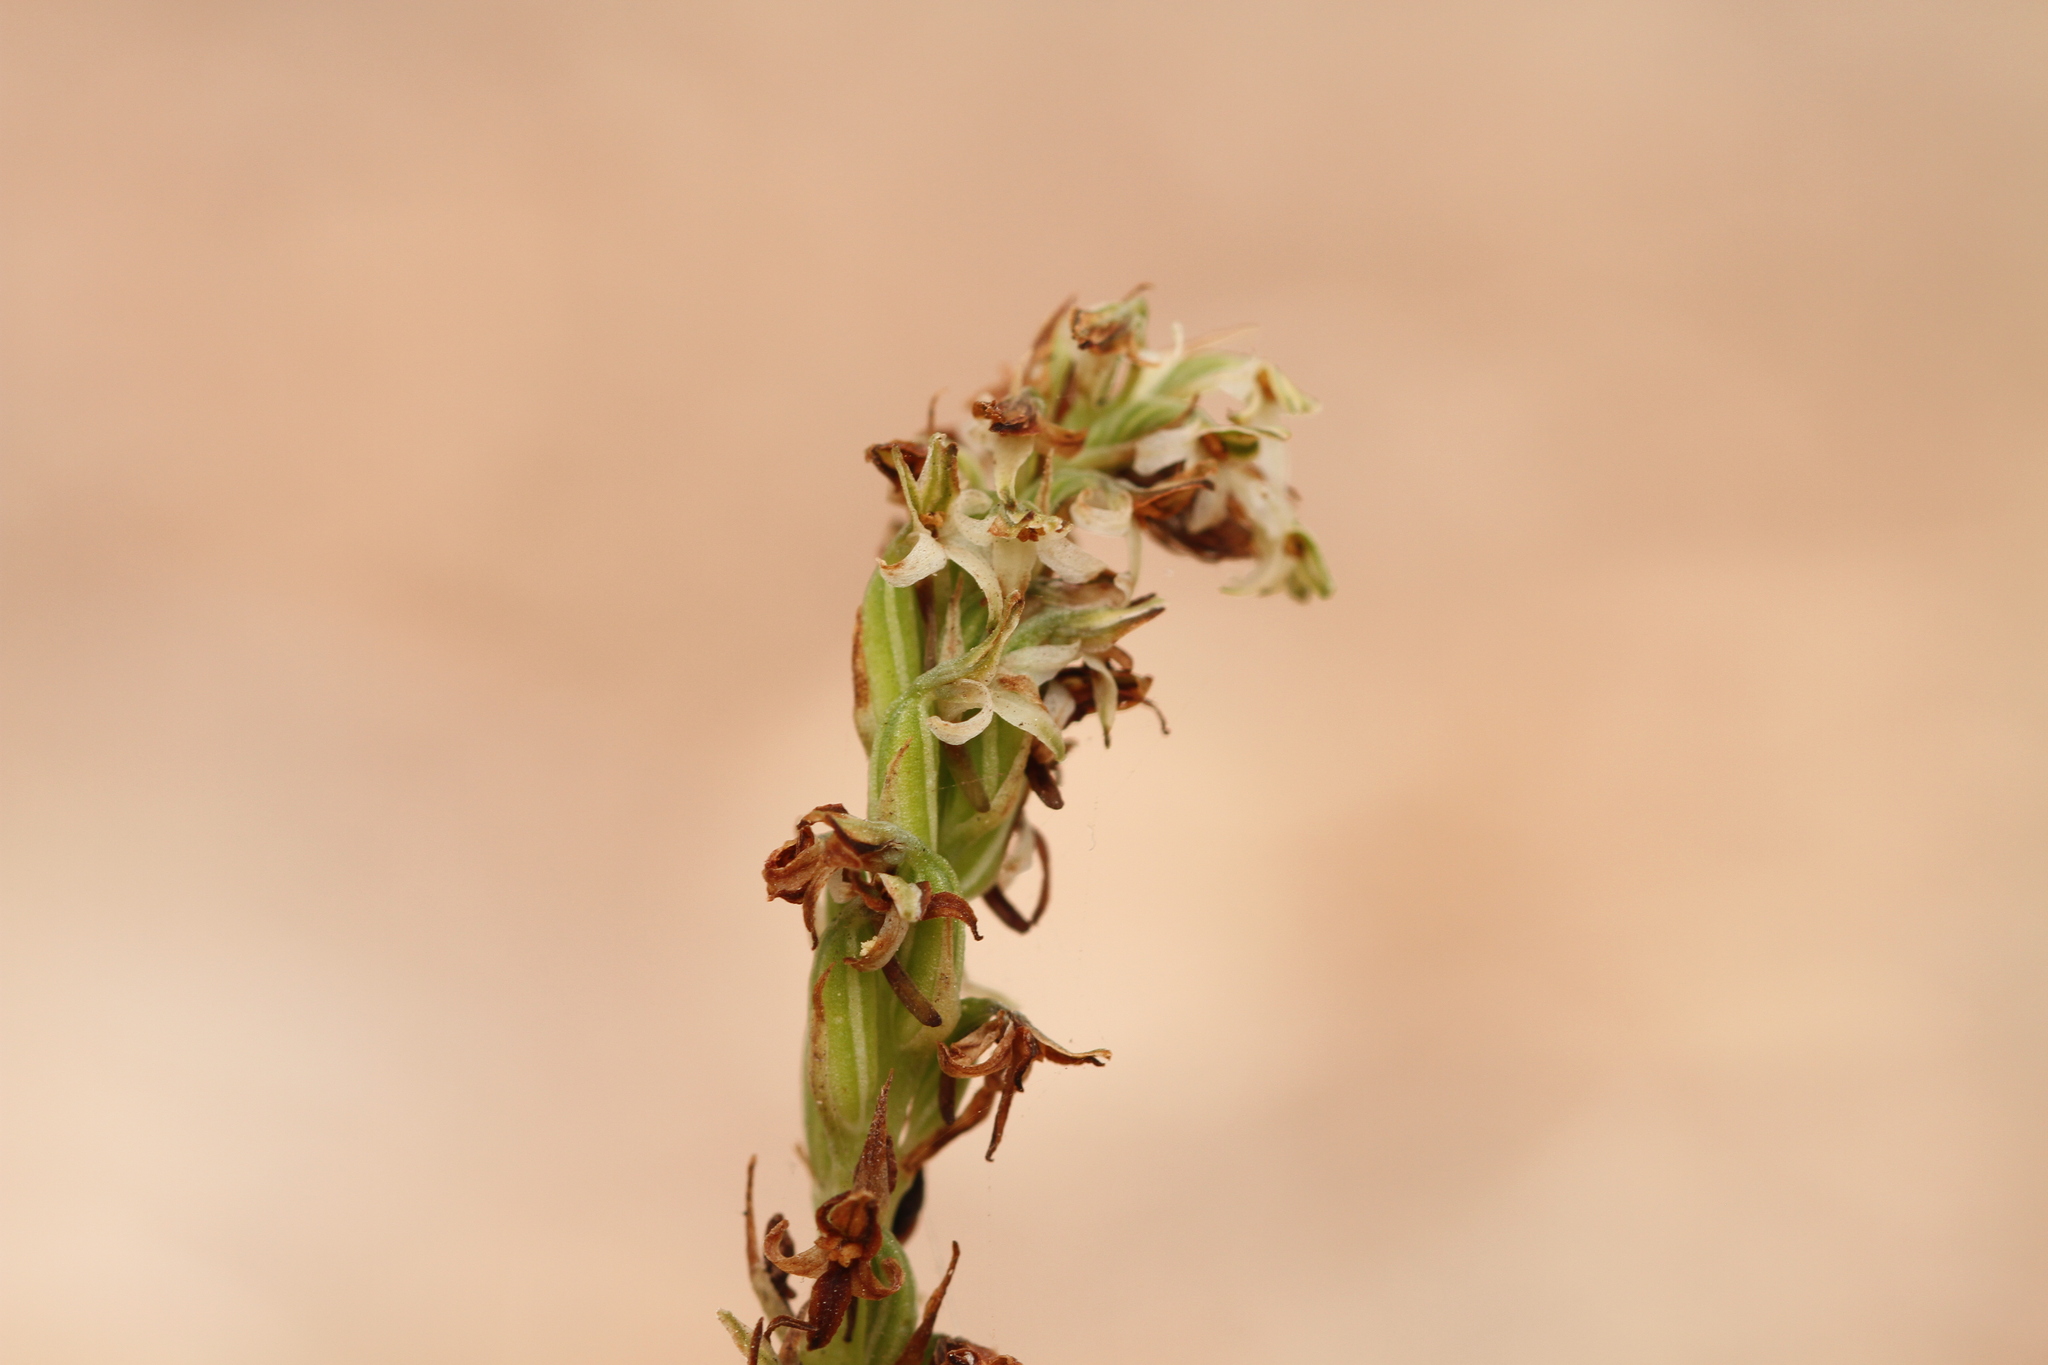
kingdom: Plantae
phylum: Tracheophyta
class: Liliopsida
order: Asparagales
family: Orchidaceae
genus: Platanthera
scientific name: Platanthera yadonii
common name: Yadon’s piperia
